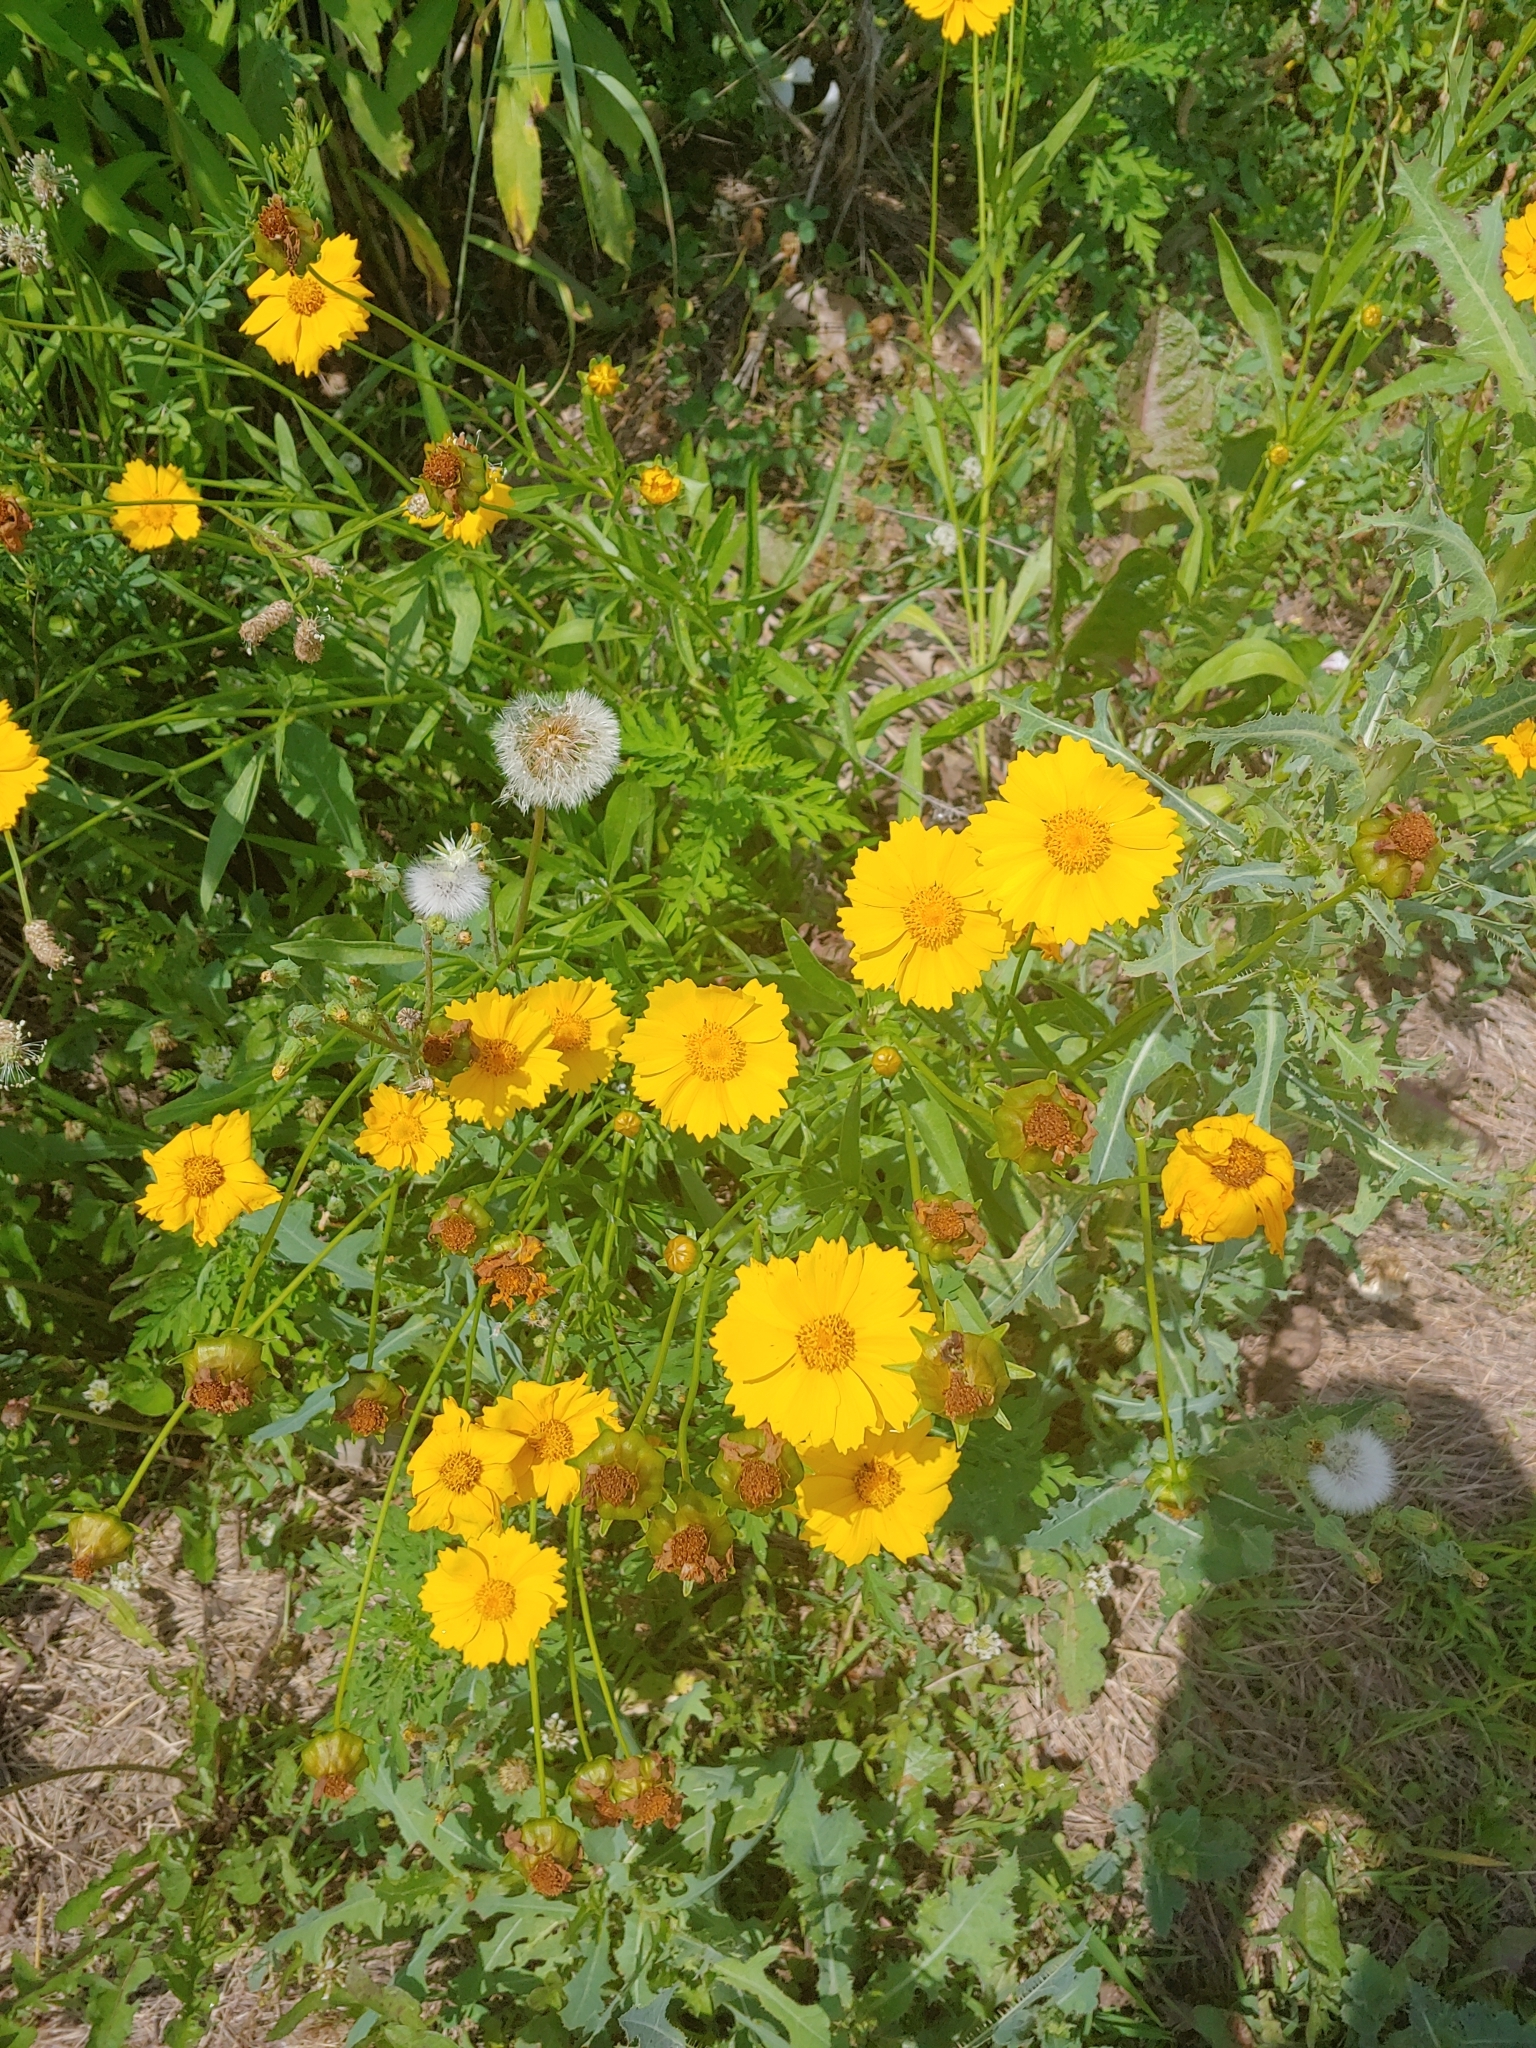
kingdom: Plantae
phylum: Tracheophyta
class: Magnoliopsida
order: Asterales
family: Asteraceae
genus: Coreopsis
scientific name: Coreopsis lanceolata
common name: Garden coreopsis
